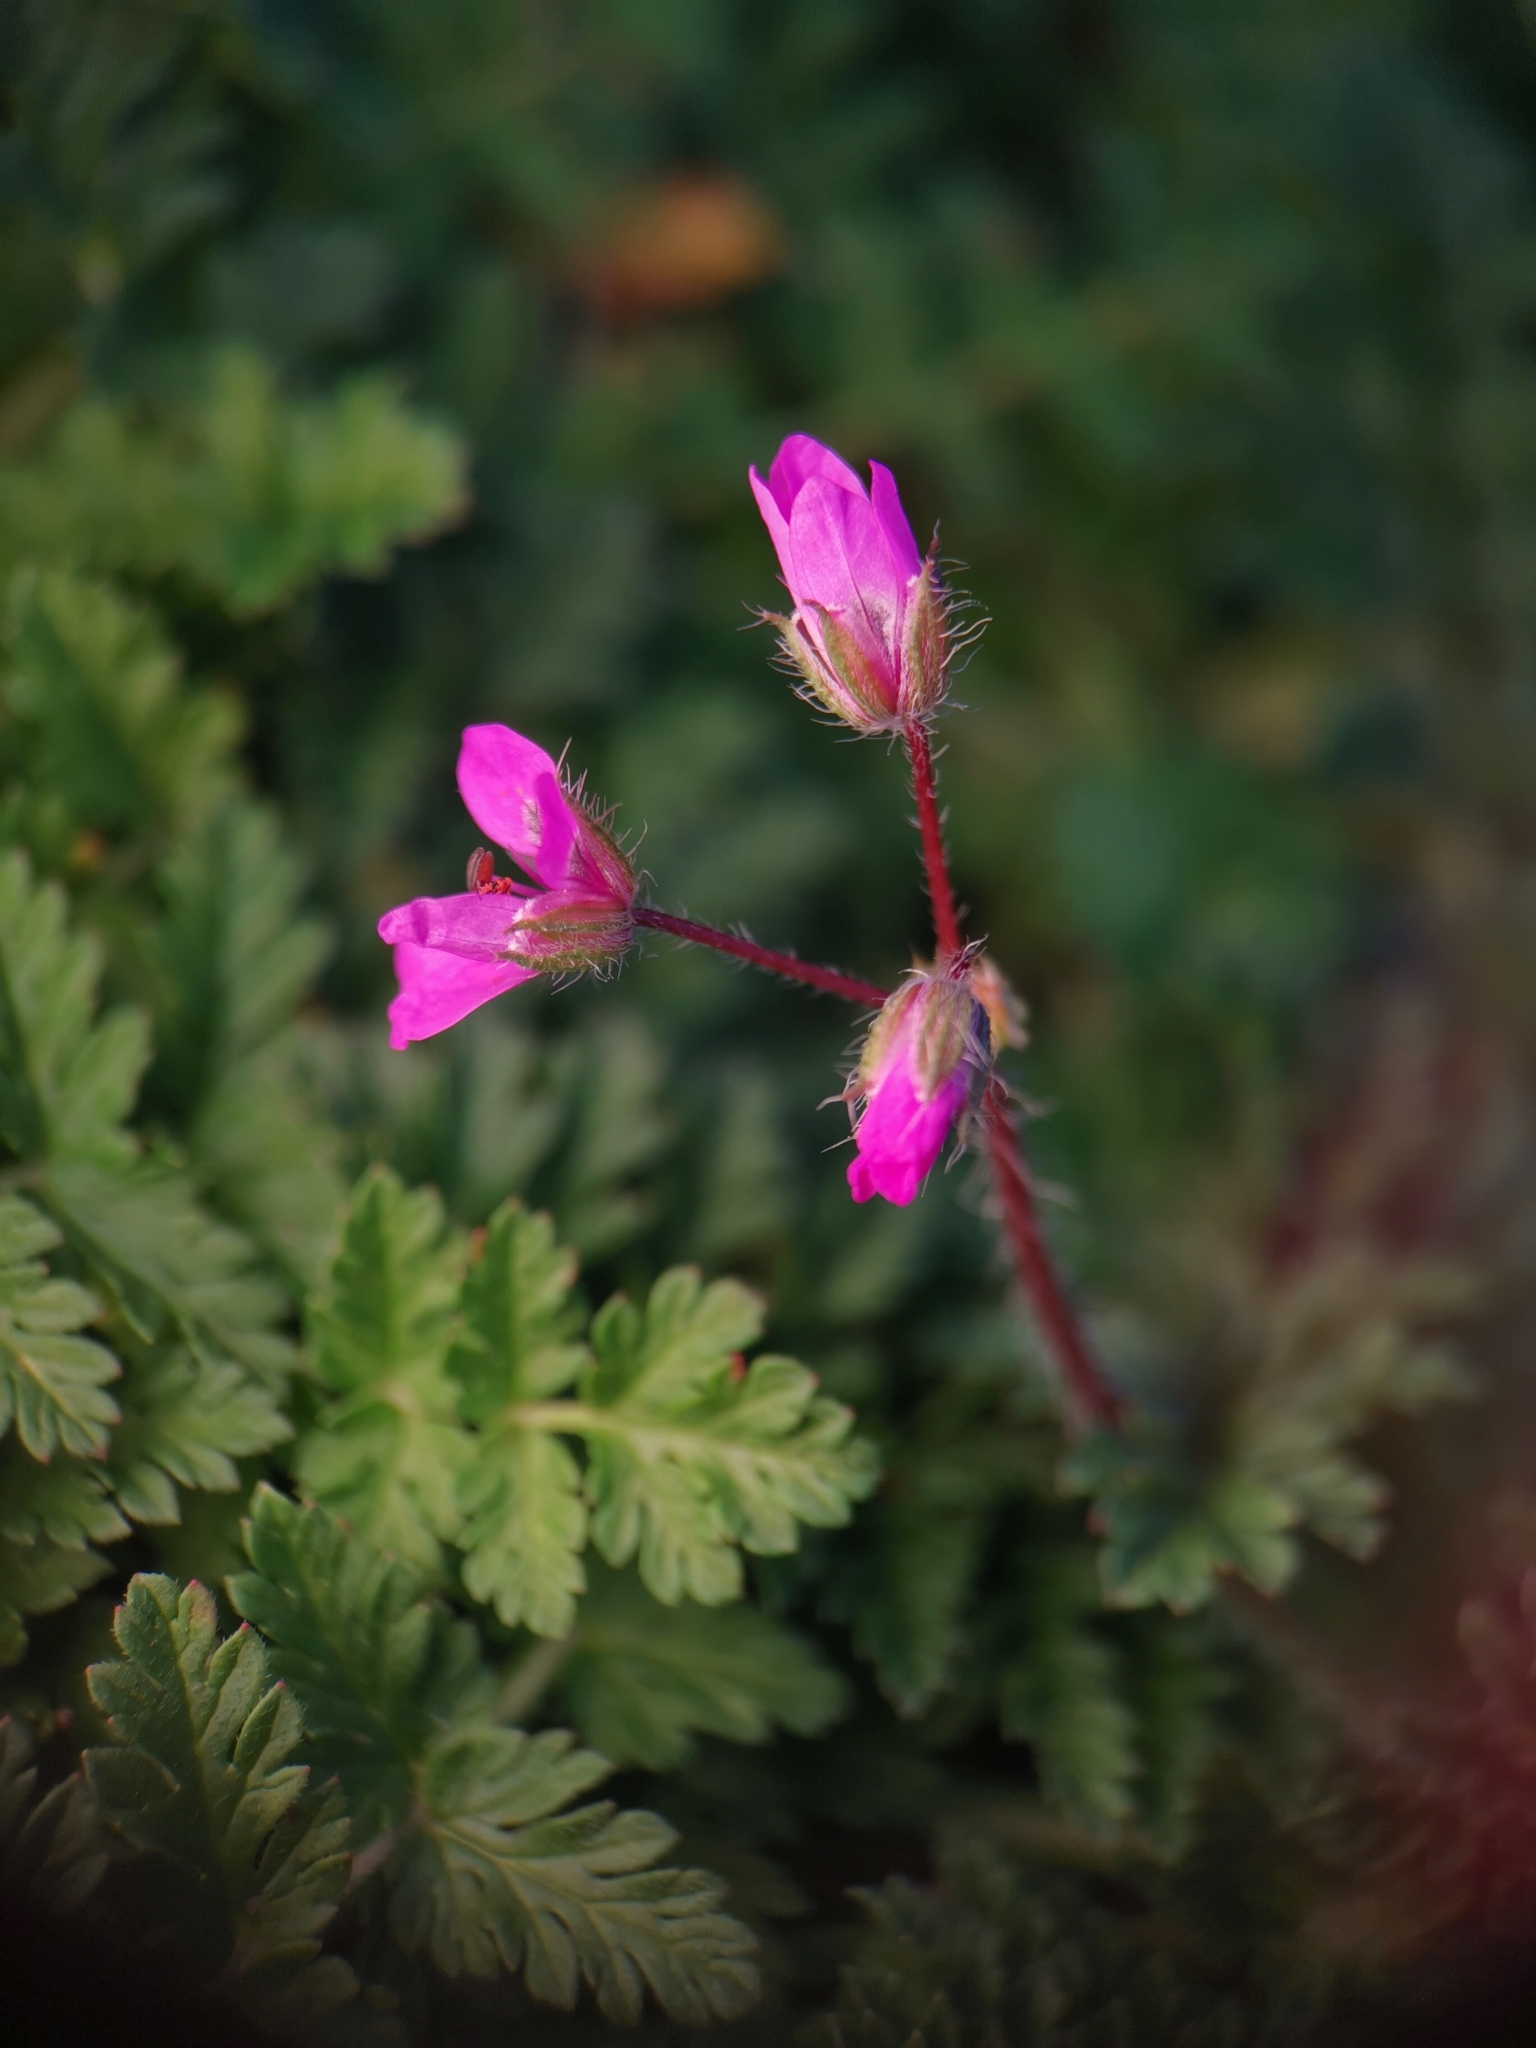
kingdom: Plantae
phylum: Tracheophyta
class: Magnoliopsida
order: Geraniales
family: Geraniaceae
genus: Erodium
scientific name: Erodium cicutarium
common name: Common stork's-bill
